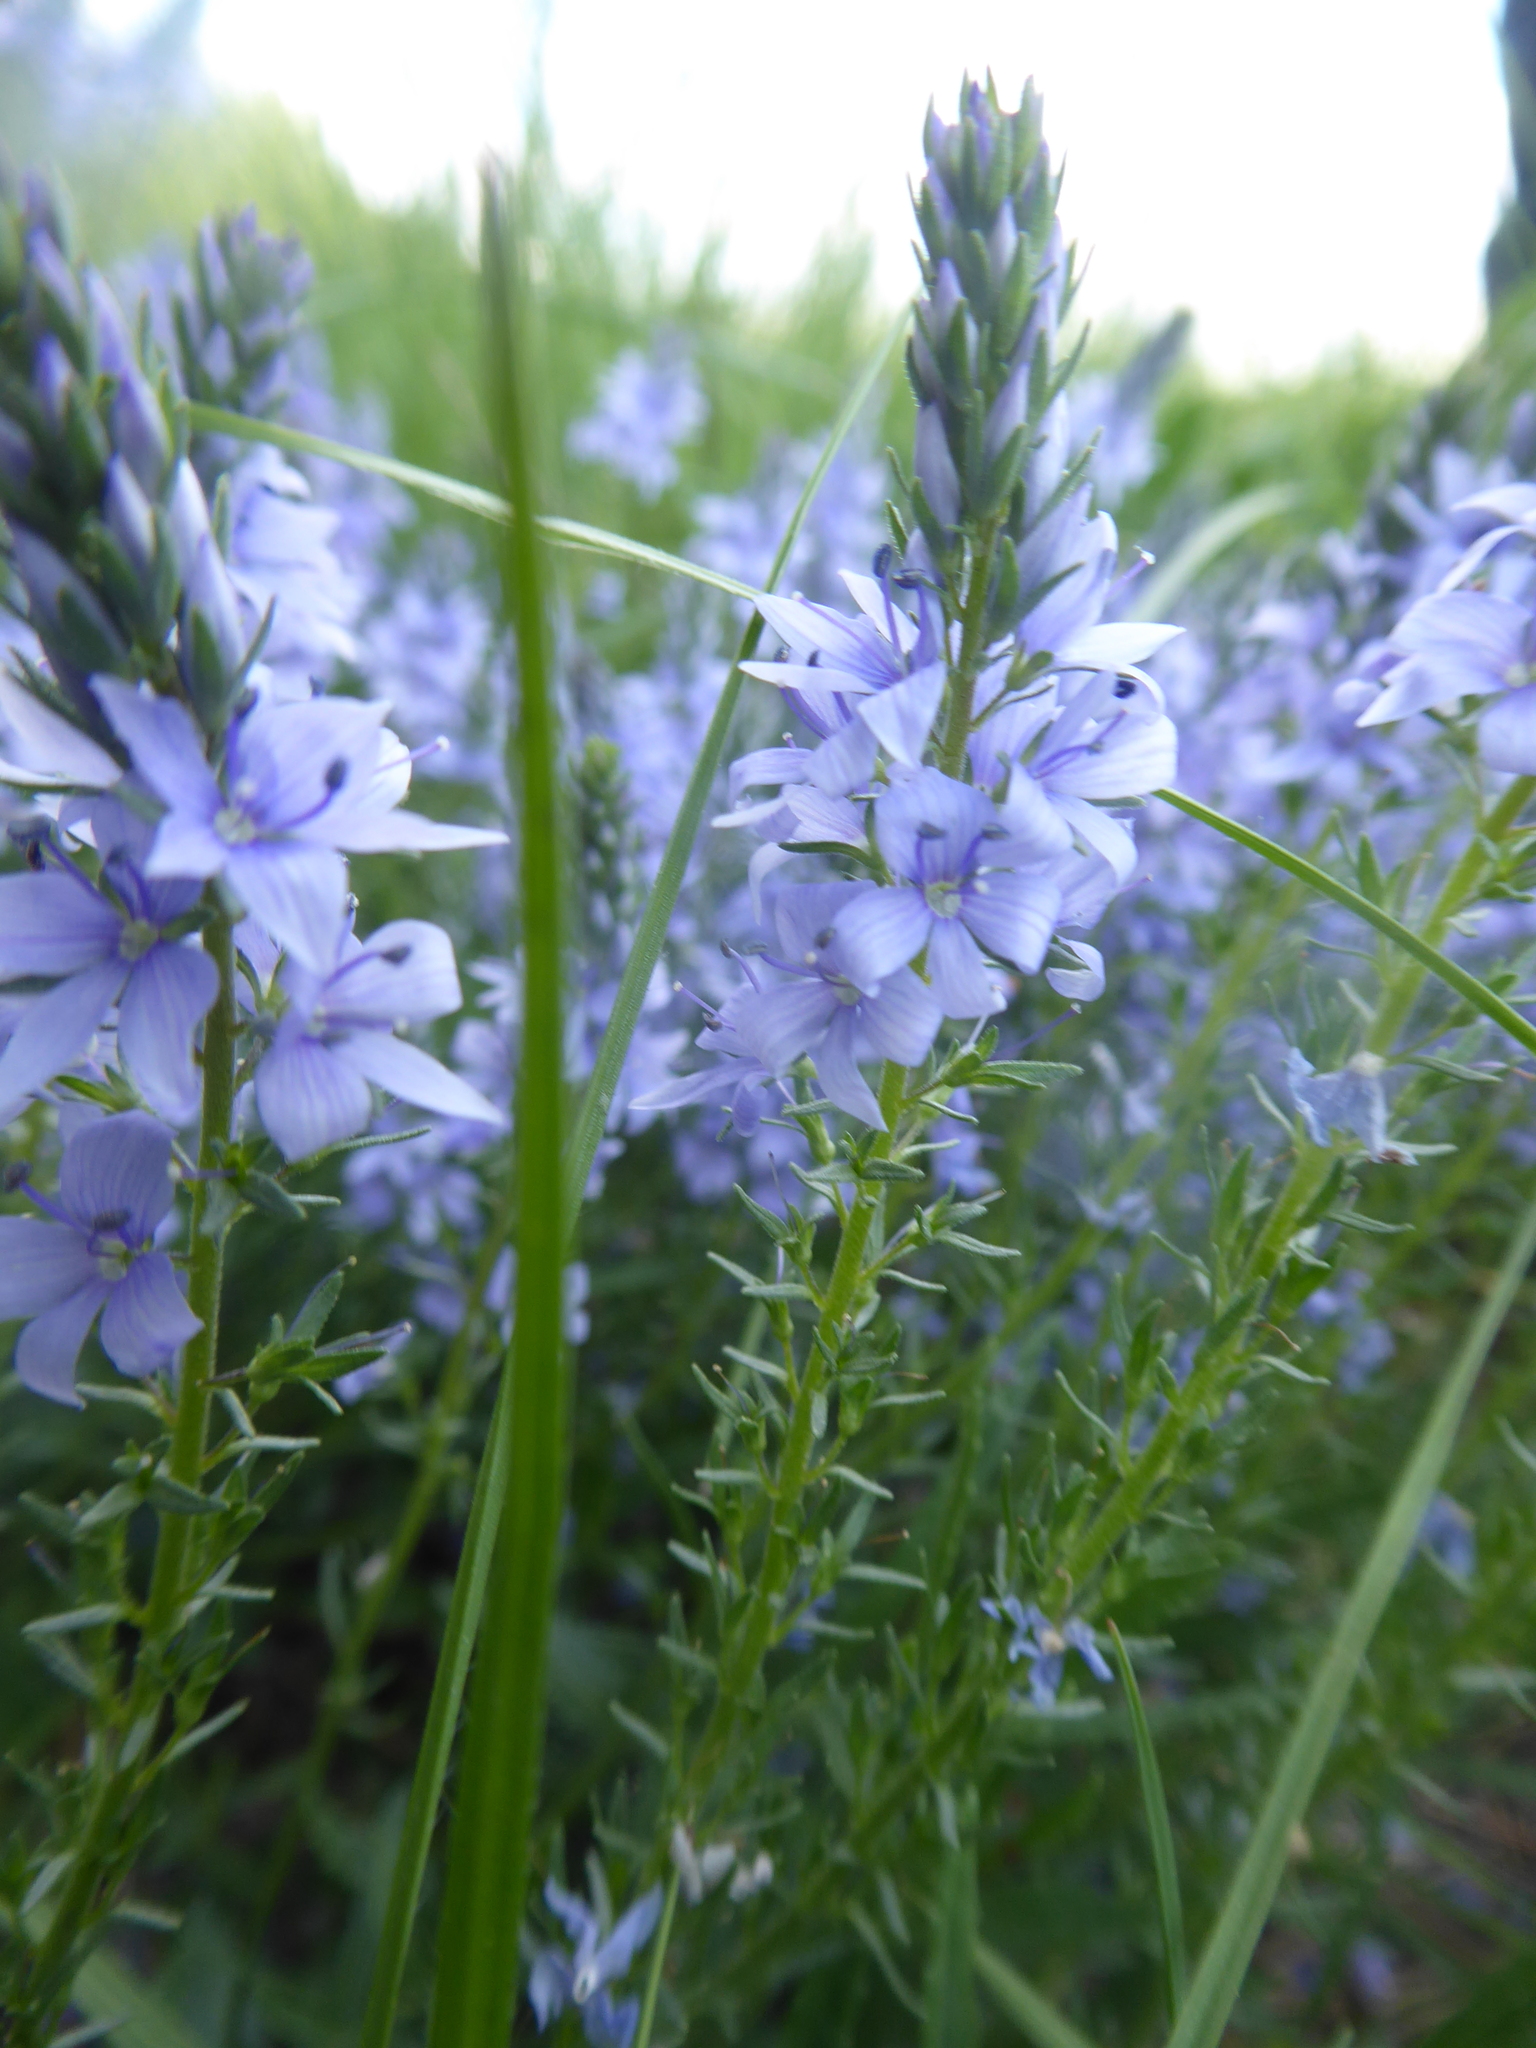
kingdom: Plantae
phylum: Tracheophyta
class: Magnoliopsida
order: Lamiales
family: Plantaginaceae
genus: Veronica
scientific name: Veronica prostrata
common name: Prostrate speedwell
